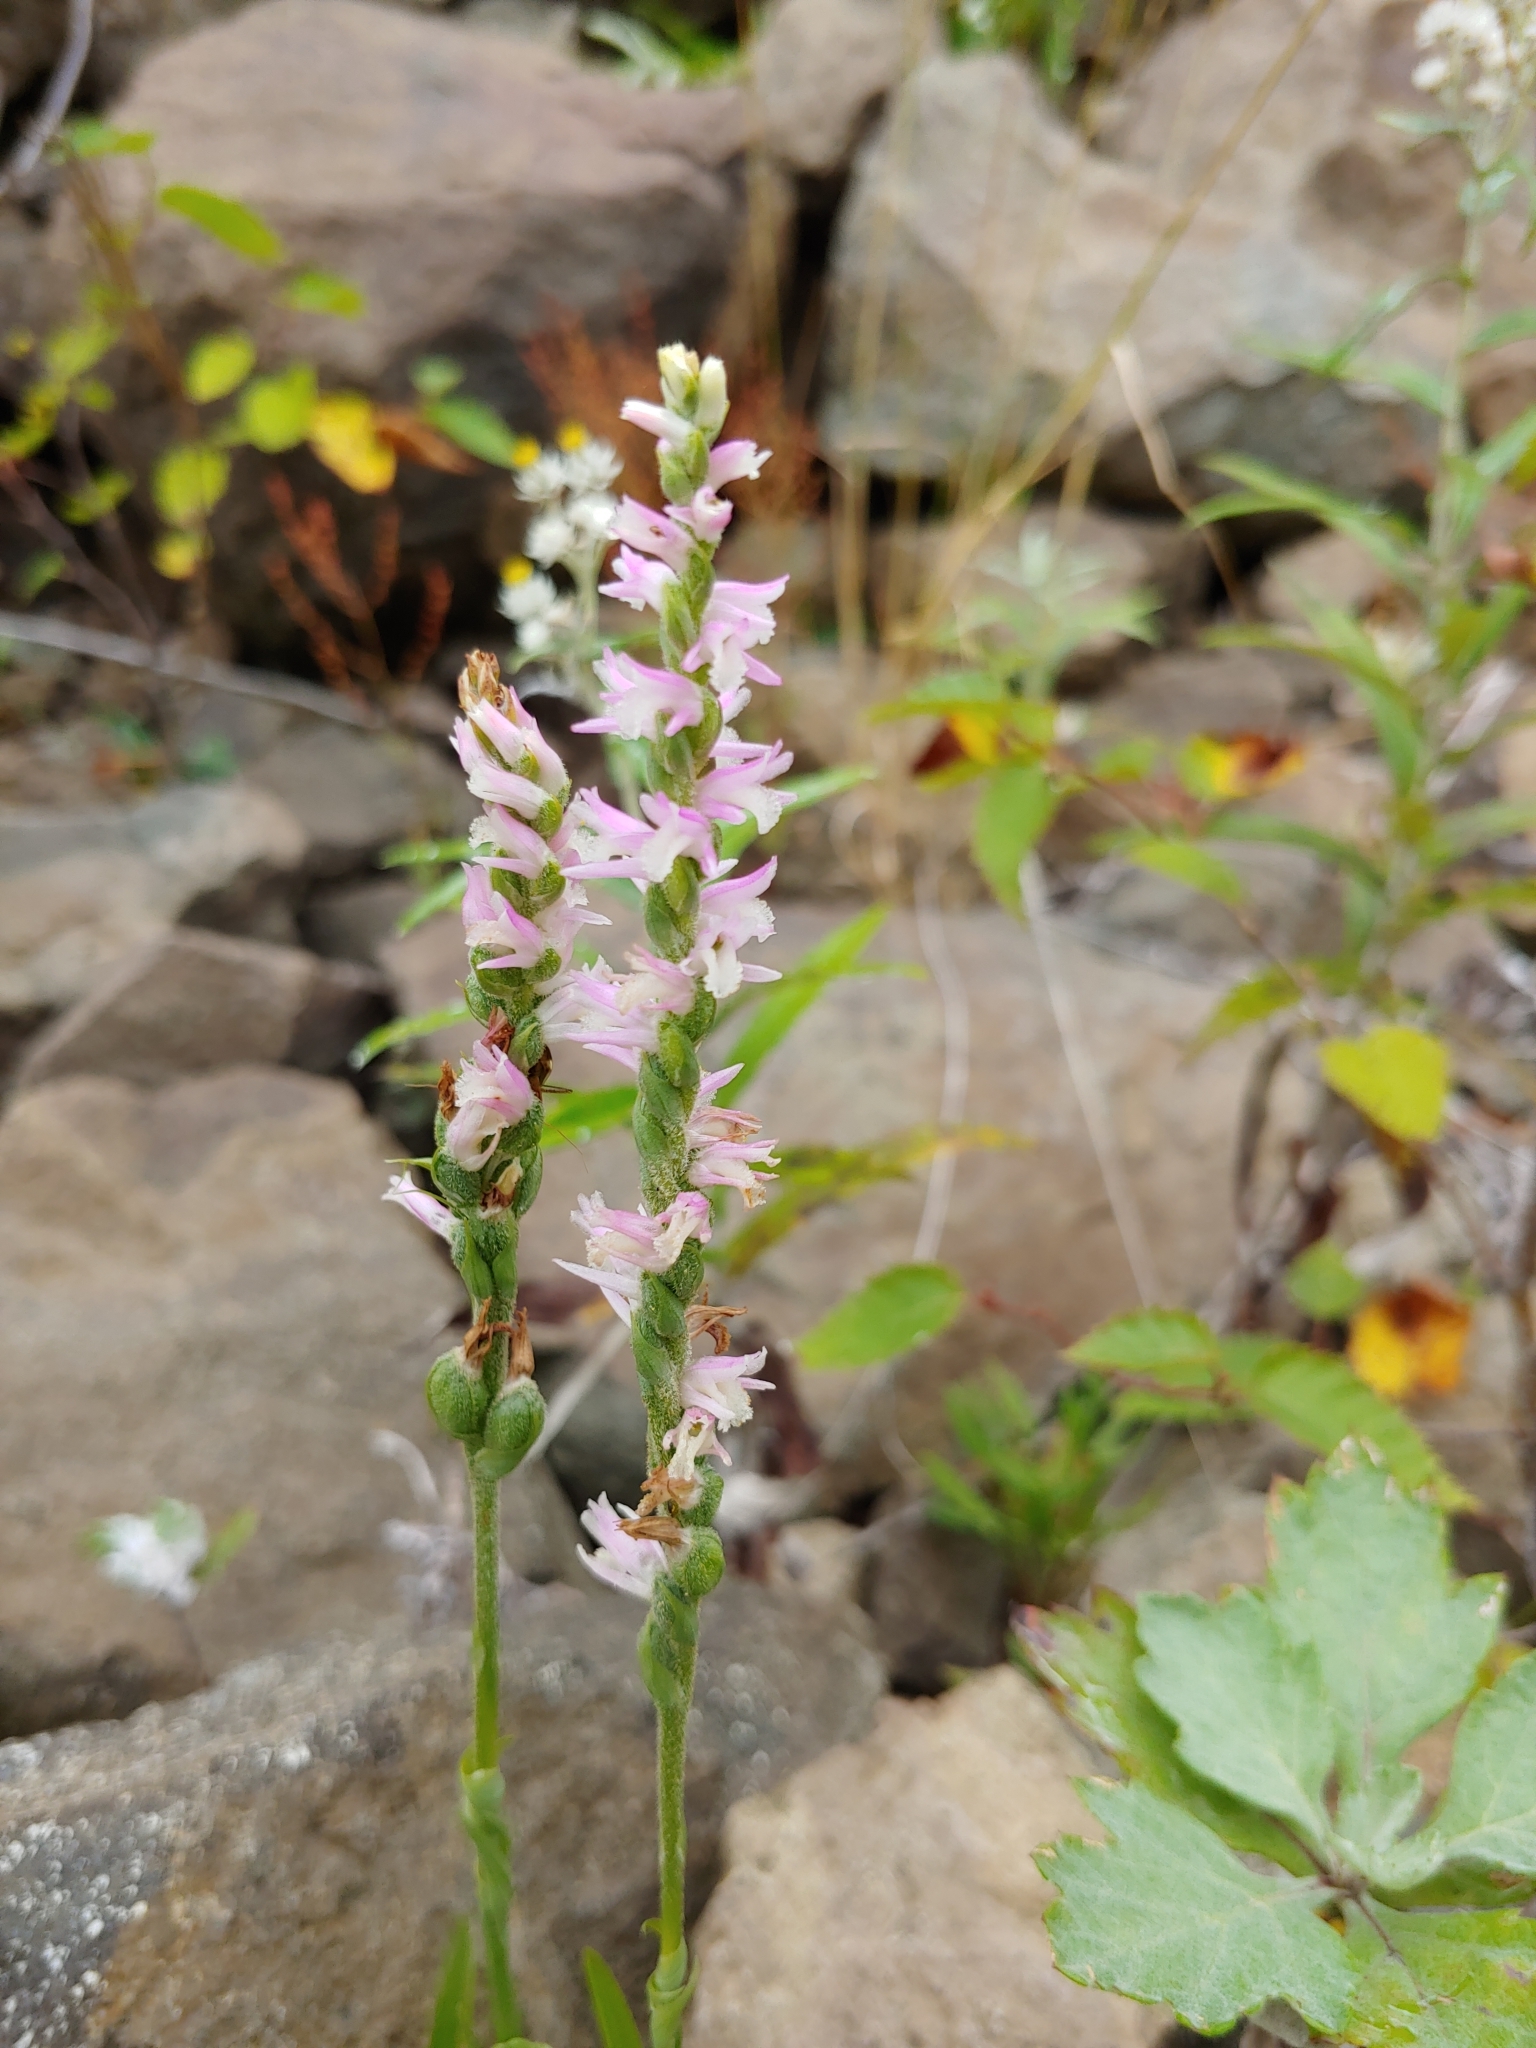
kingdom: Plantae
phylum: Tracheophyta
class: Liliopsida
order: Asparagales
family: Orchidaceae
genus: Spiranthes
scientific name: Spiranthes australis
